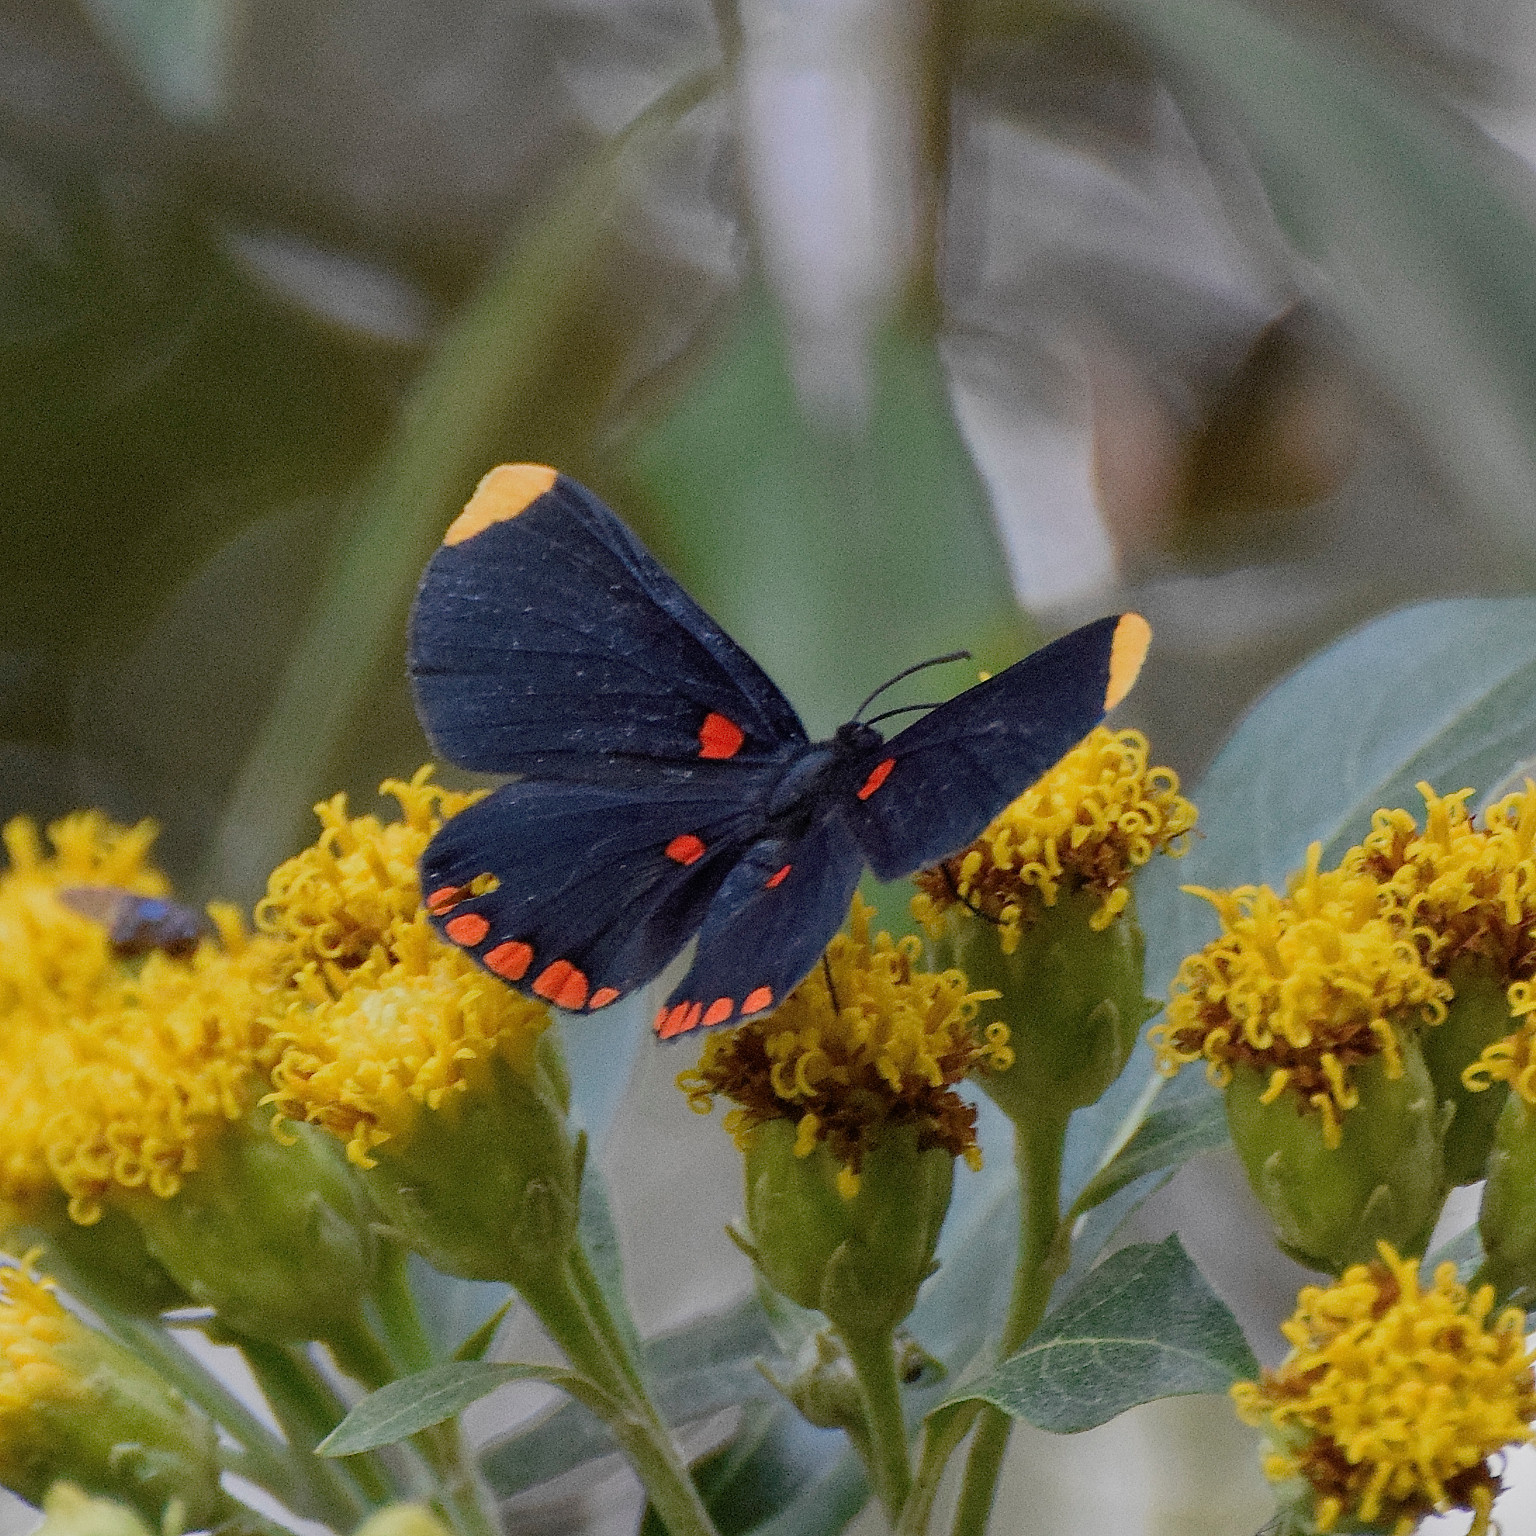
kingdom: Animalia
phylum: Arthropoda
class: Insecta
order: Lepidoptera
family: Lycaenidae
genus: Melanis
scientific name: Melanis pixe
